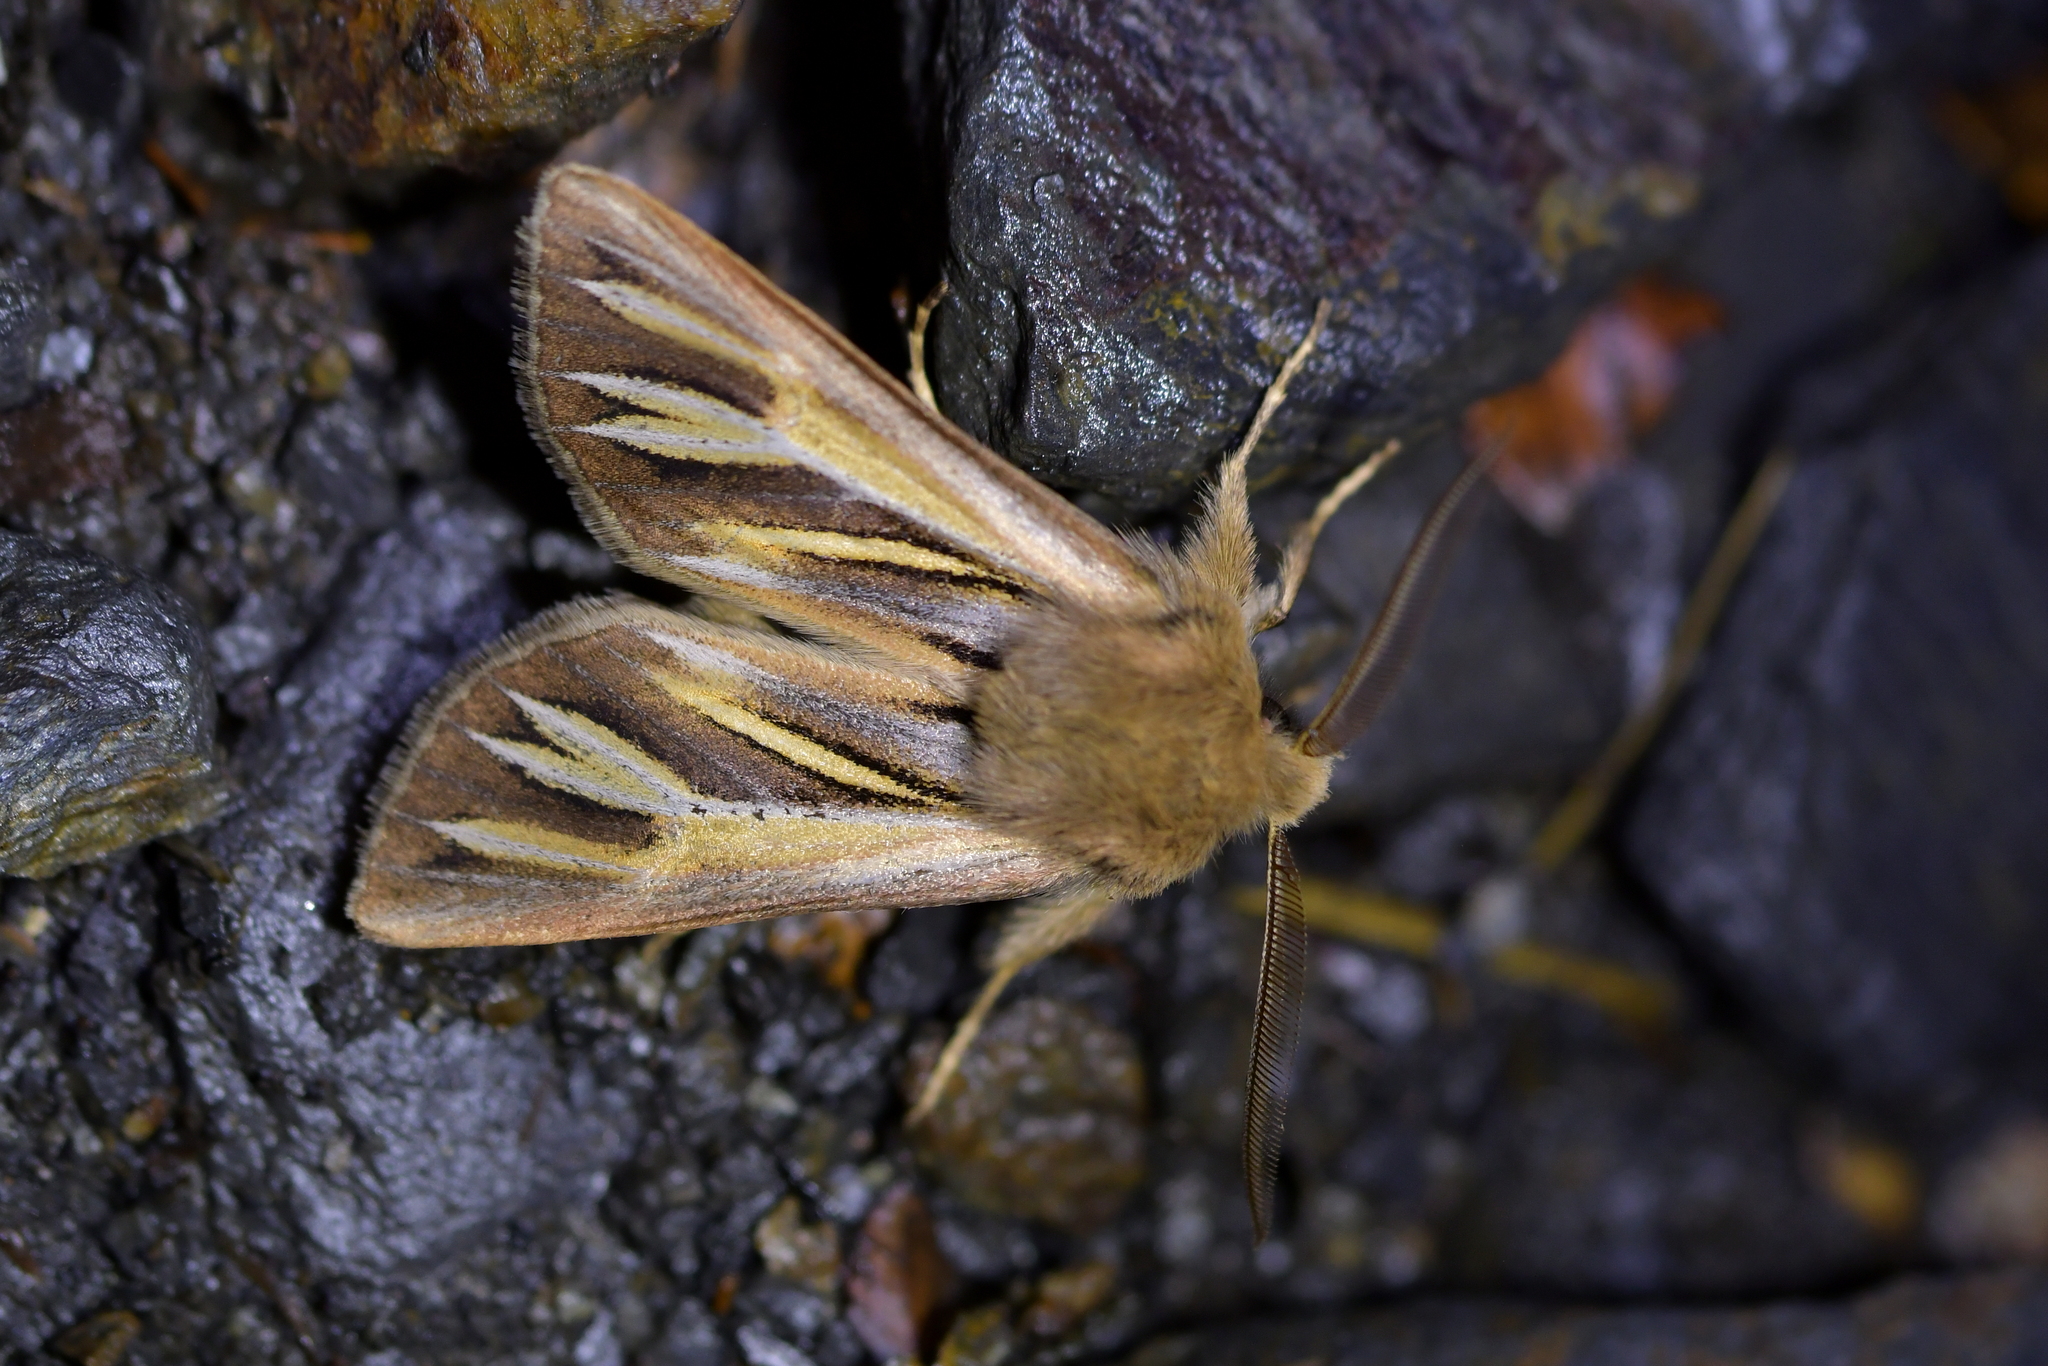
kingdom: Animalia
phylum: Arthropoda
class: Insecta
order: Lepidoptera
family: Noctuidae
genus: Ichneutica
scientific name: Ichneutica caraunias
